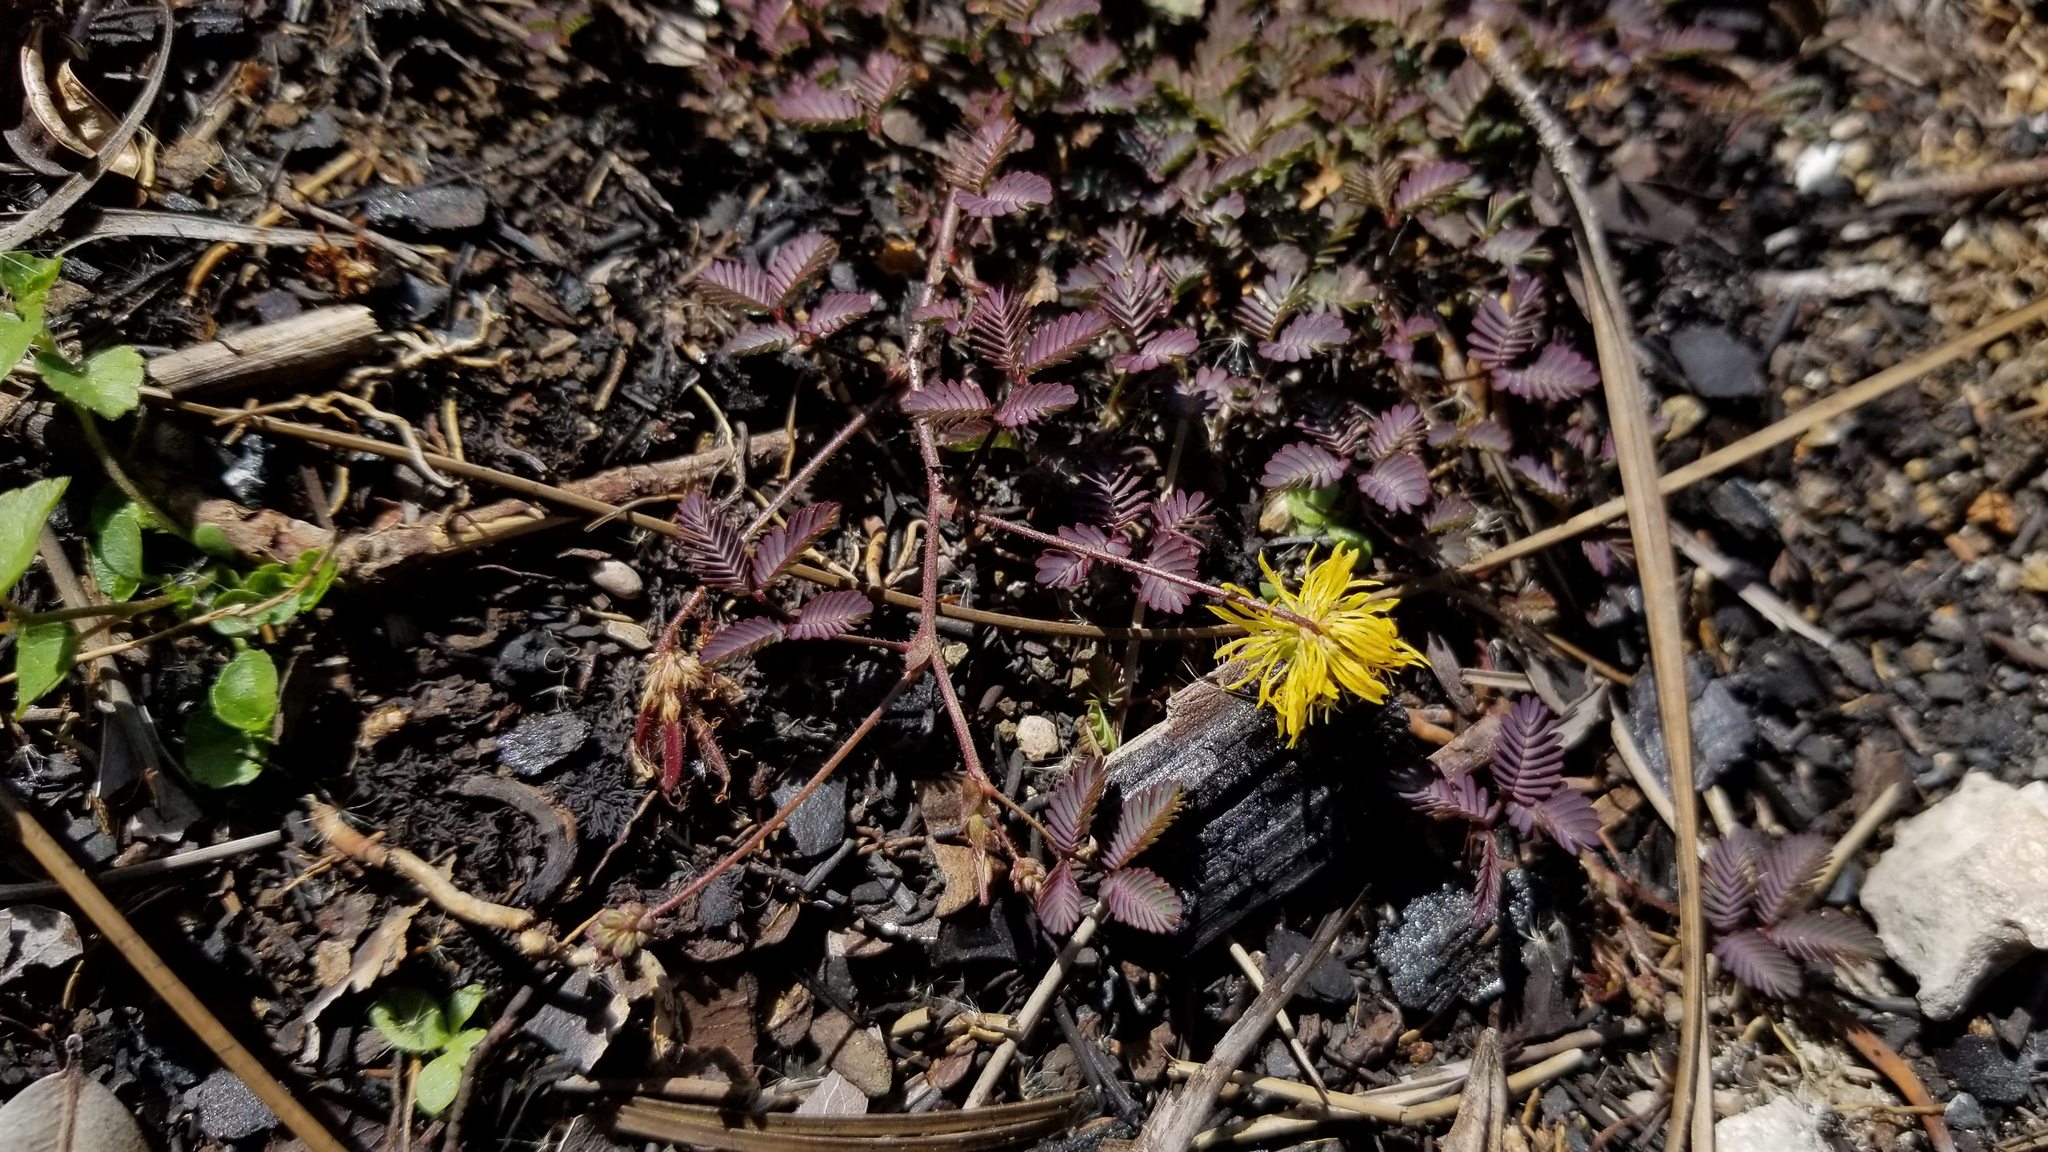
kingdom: Plantae
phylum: Tracheophyta
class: Magnoliopsida
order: Fabales
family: Fabaceae
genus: Neptunia
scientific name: Neptunia pubescens
